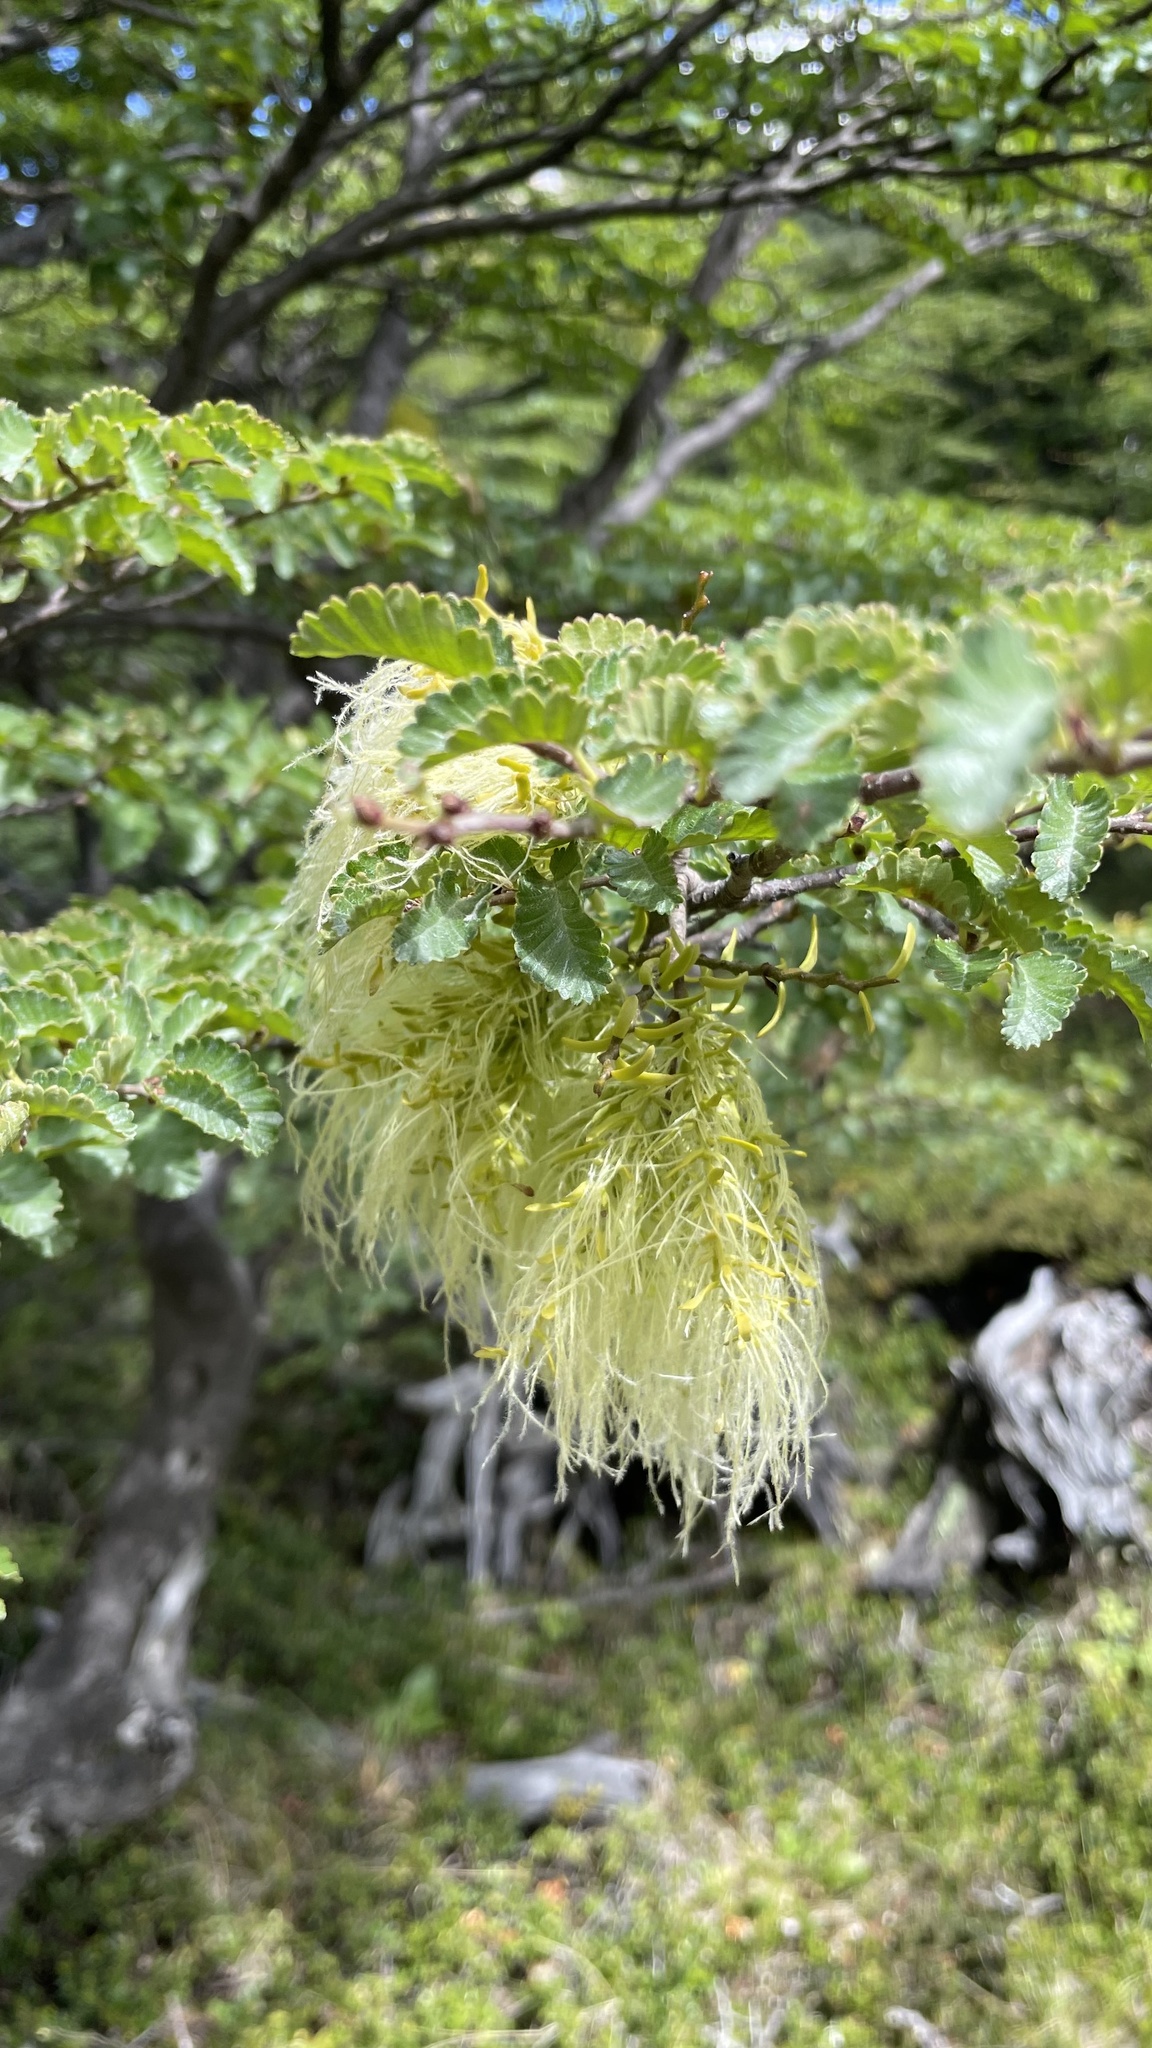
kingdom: Plantae
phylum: Tracheophyta
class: Magnoliopsida
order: Santalales
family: Misodendraceae
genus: Misodendrum
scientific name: Misodendrum linearifolium
